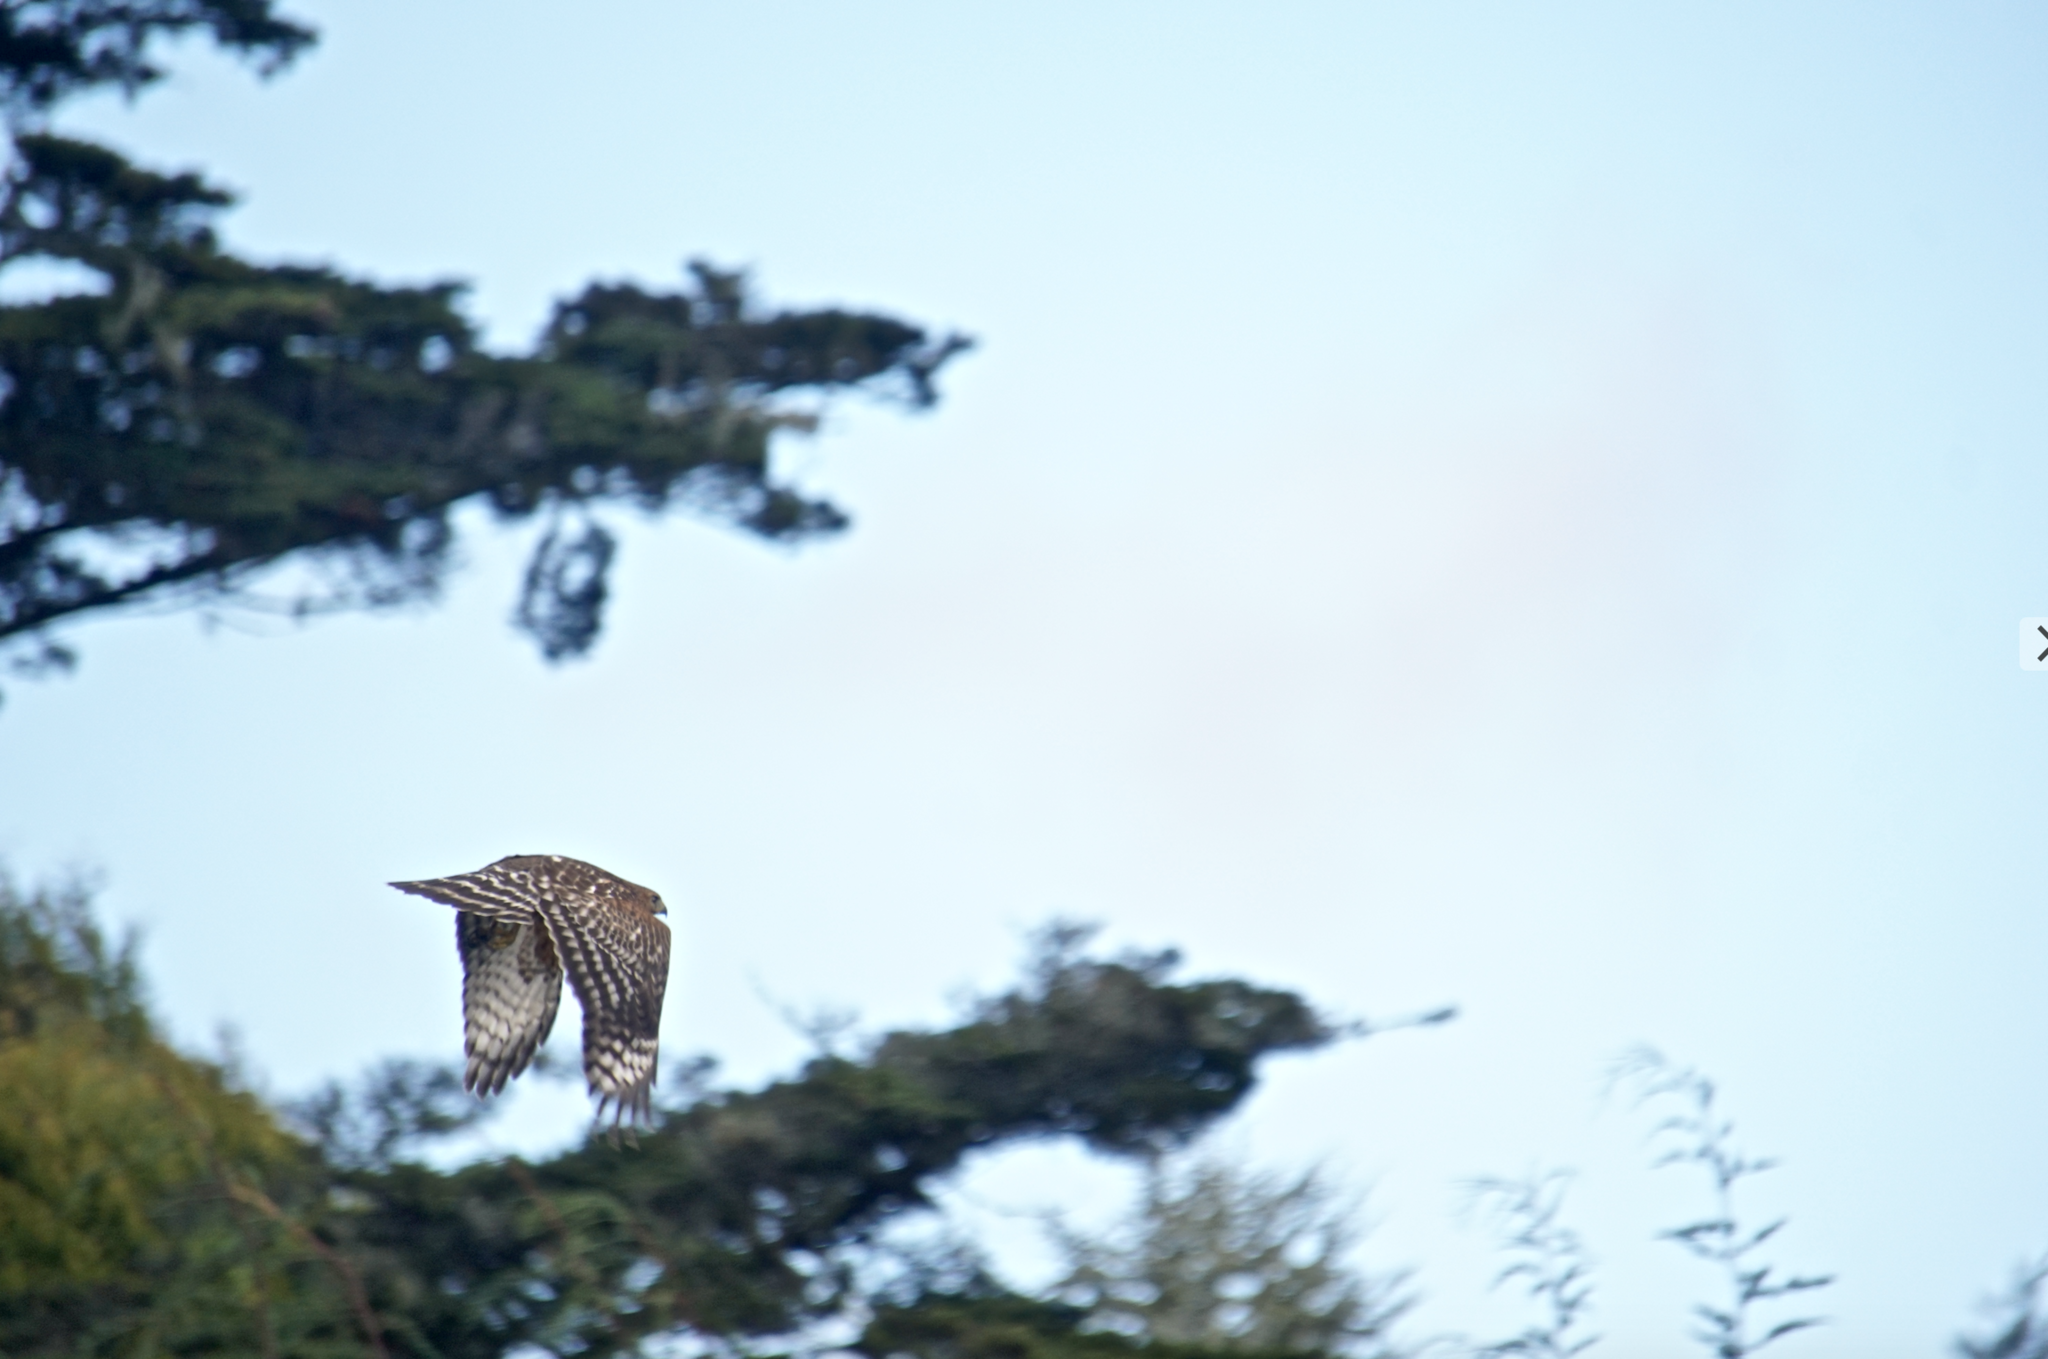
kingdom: Animalia
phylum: Chordata
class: Aves
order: Accipitriformes
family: Accipitridae
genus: Buteo
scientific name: Buteo lineatus
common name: Red-shouldered hawk
